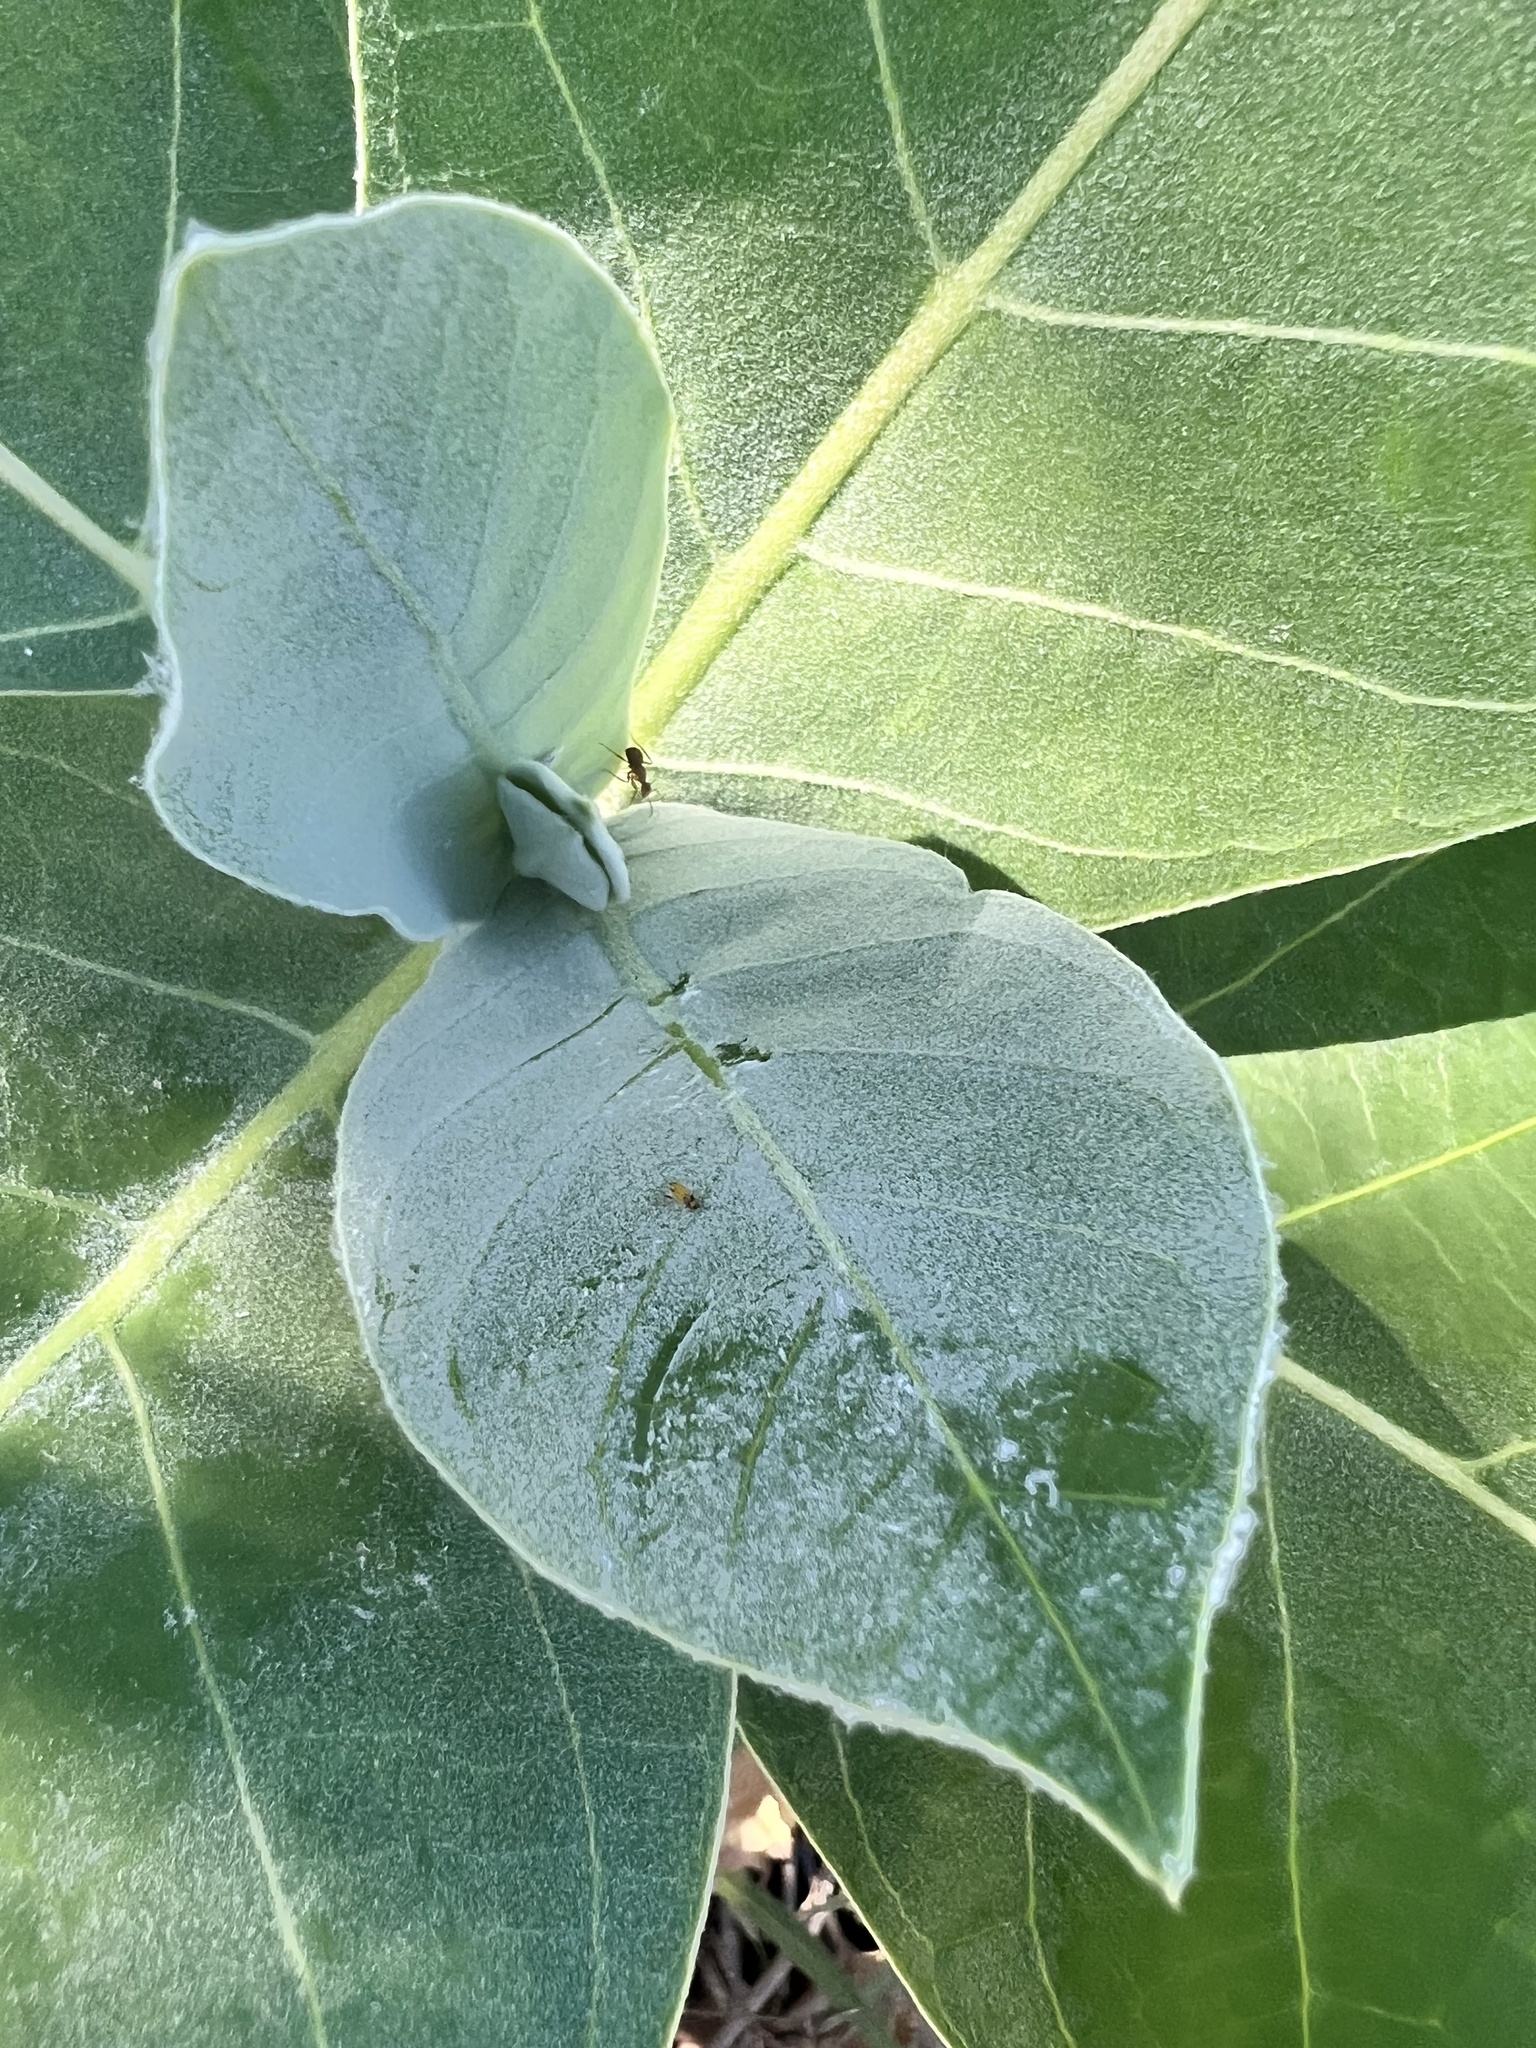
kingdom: Plantae
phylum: Tracheophyta
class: Magnoliopsida
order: Gentianales
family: Apocynaceae
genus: Calotropis
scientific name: Calotropis procera
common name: Roostertree
